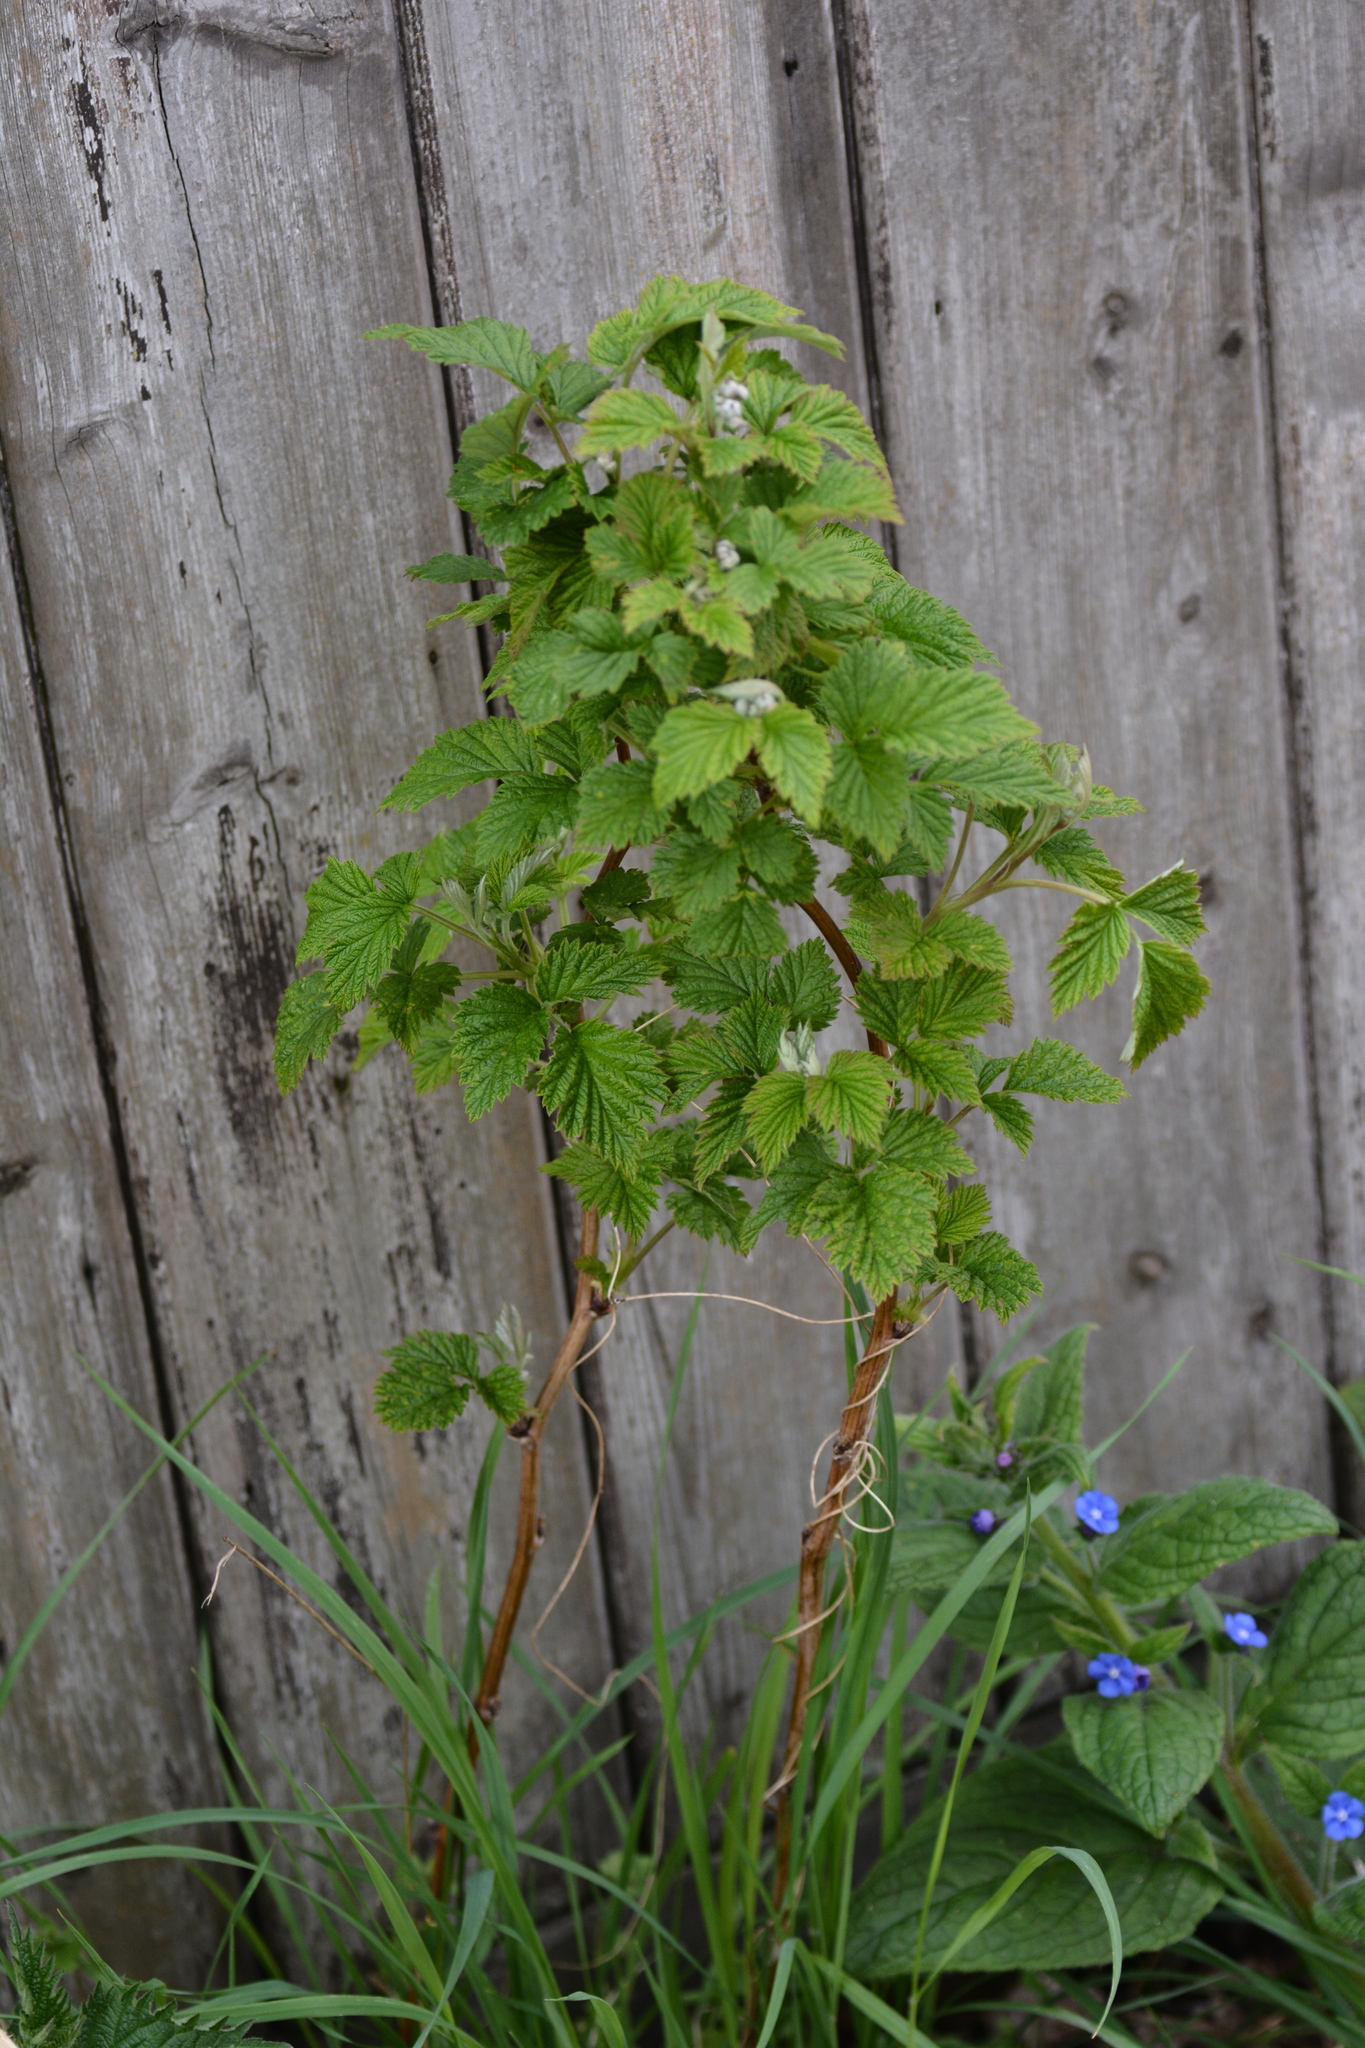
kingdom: Plantae
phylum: Tracheophyta
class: Magnoliopsida
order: Rosales
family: Rosaceae
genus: Rubus
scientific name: Rubus idaeus
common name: Raspberry
